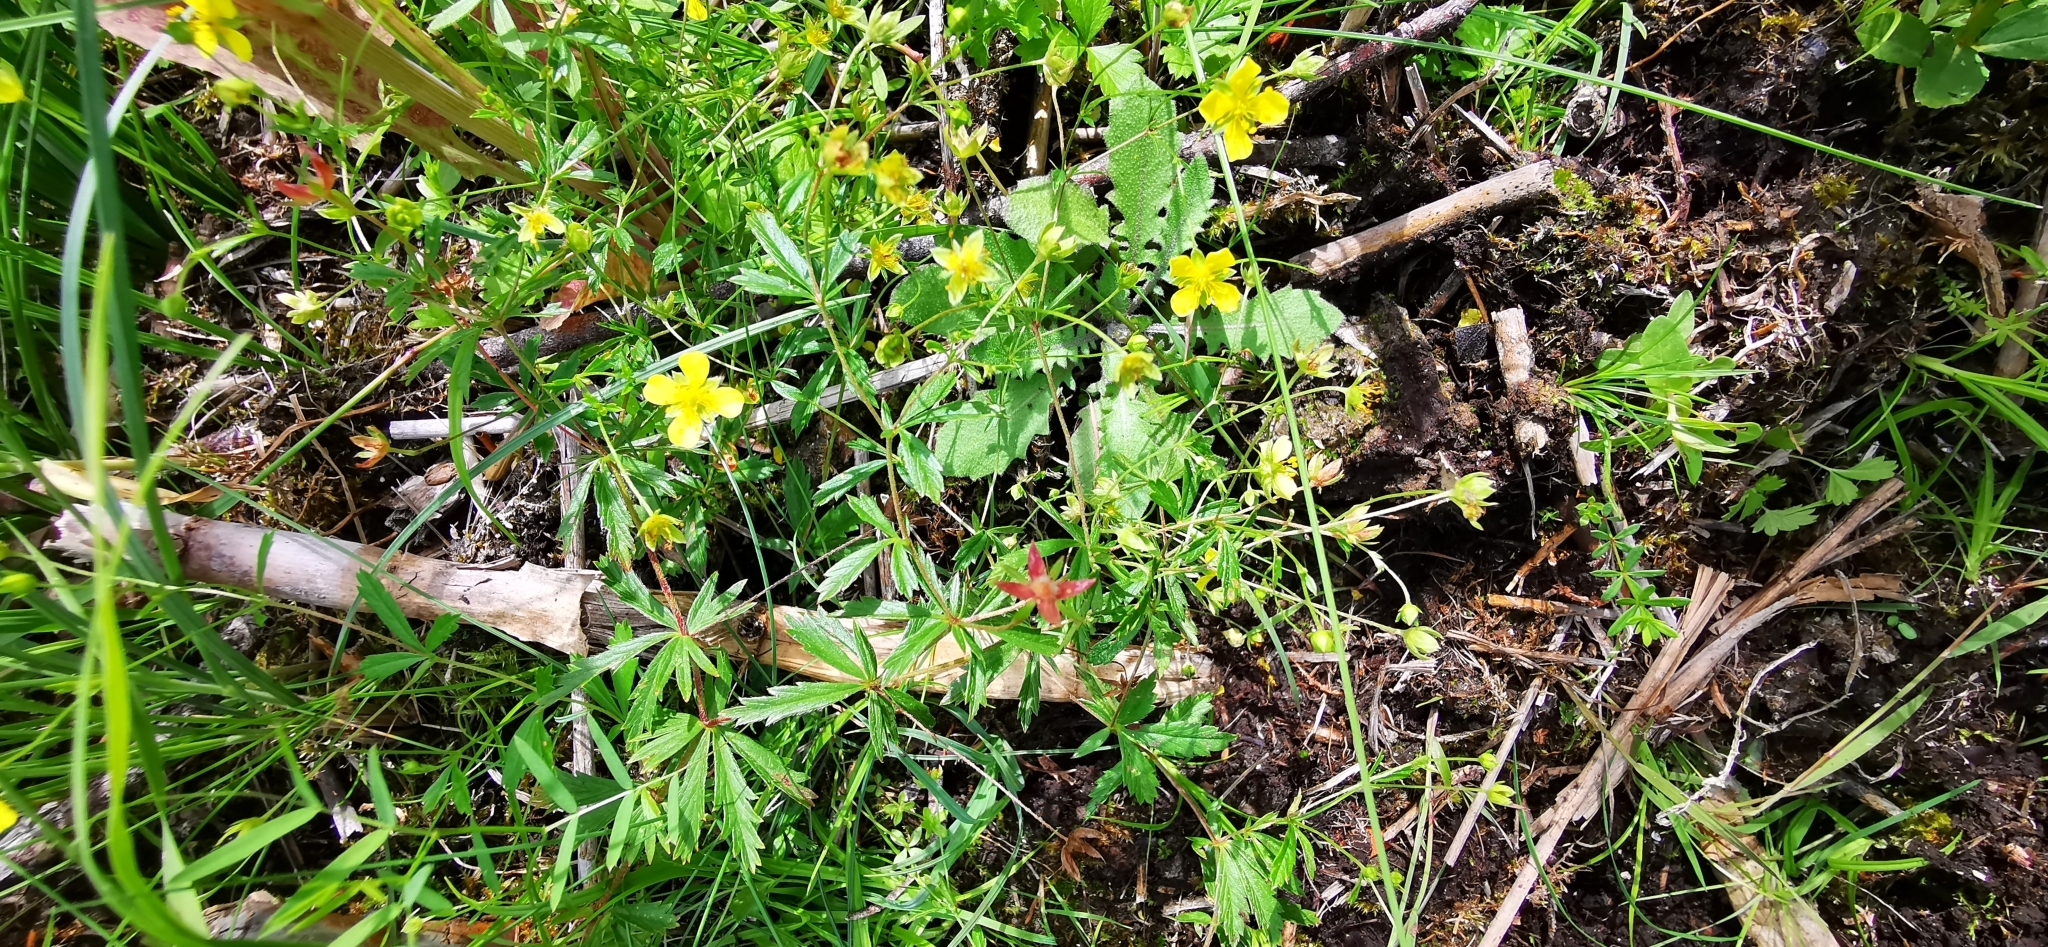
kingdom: Plantae
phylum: Tracheophyta
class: Magnoliopsida
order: Rosales
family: Rosaceae
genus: Potentilla
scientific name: Potentilla erecta
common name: Tormentil
